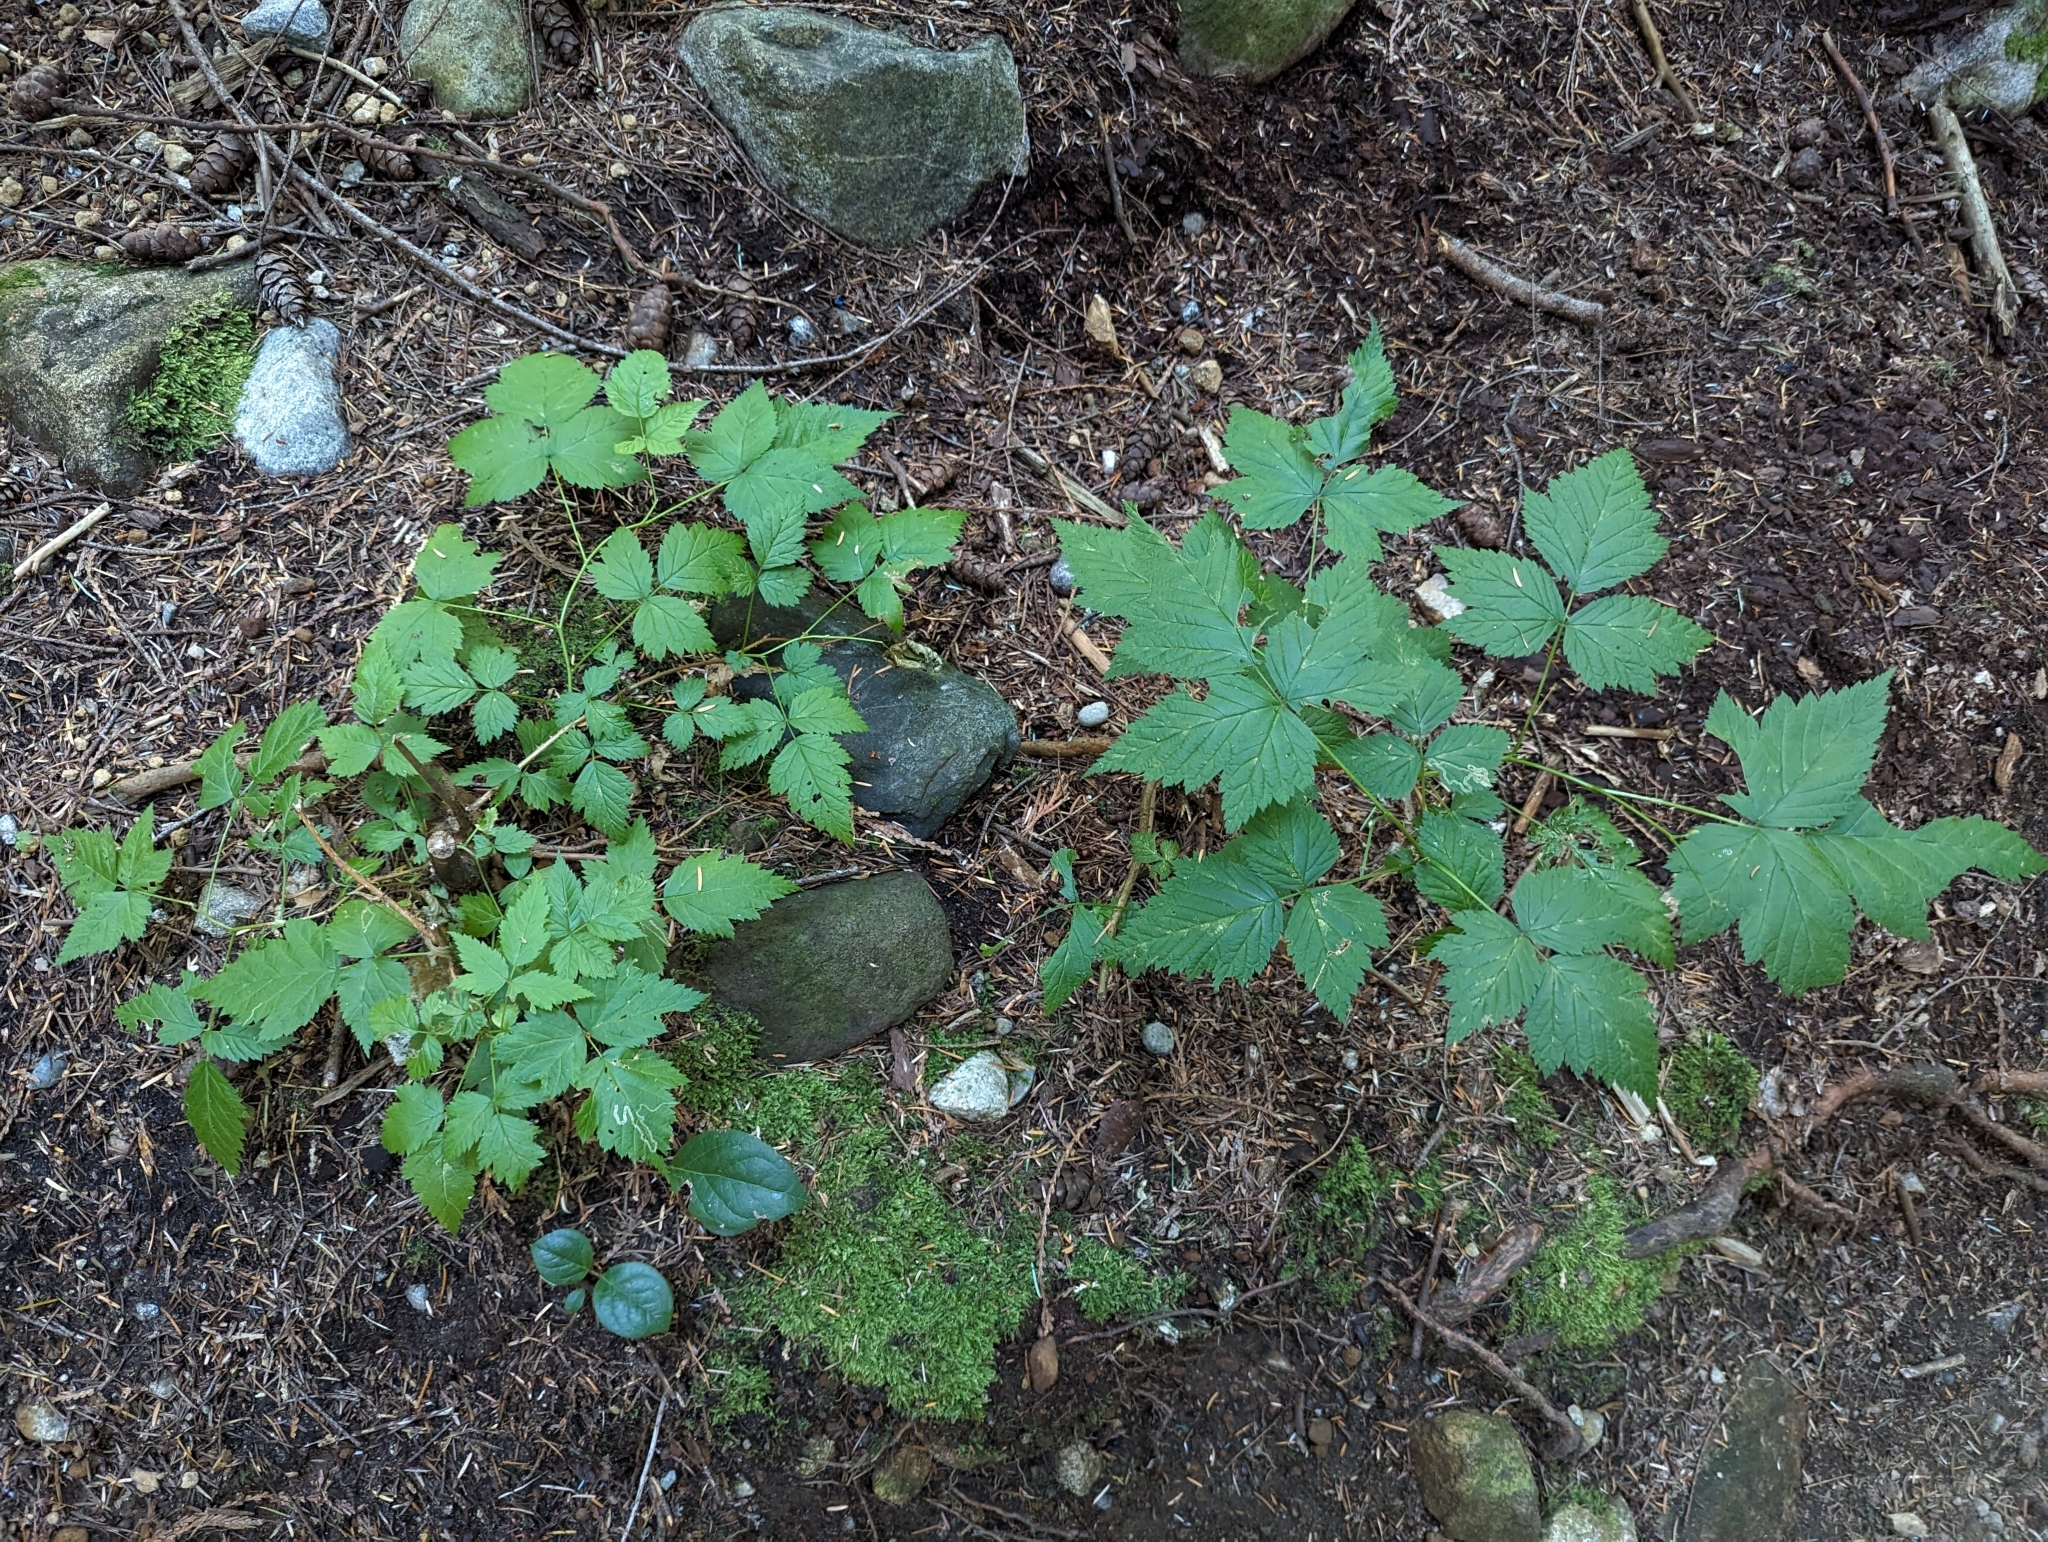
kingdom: Plantae
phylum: Tracheophyta
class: Magnoliopsida
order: Rosales
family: Rosaceae
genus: Rubus
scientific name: Rubus spectabilis
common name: Salmonberry
